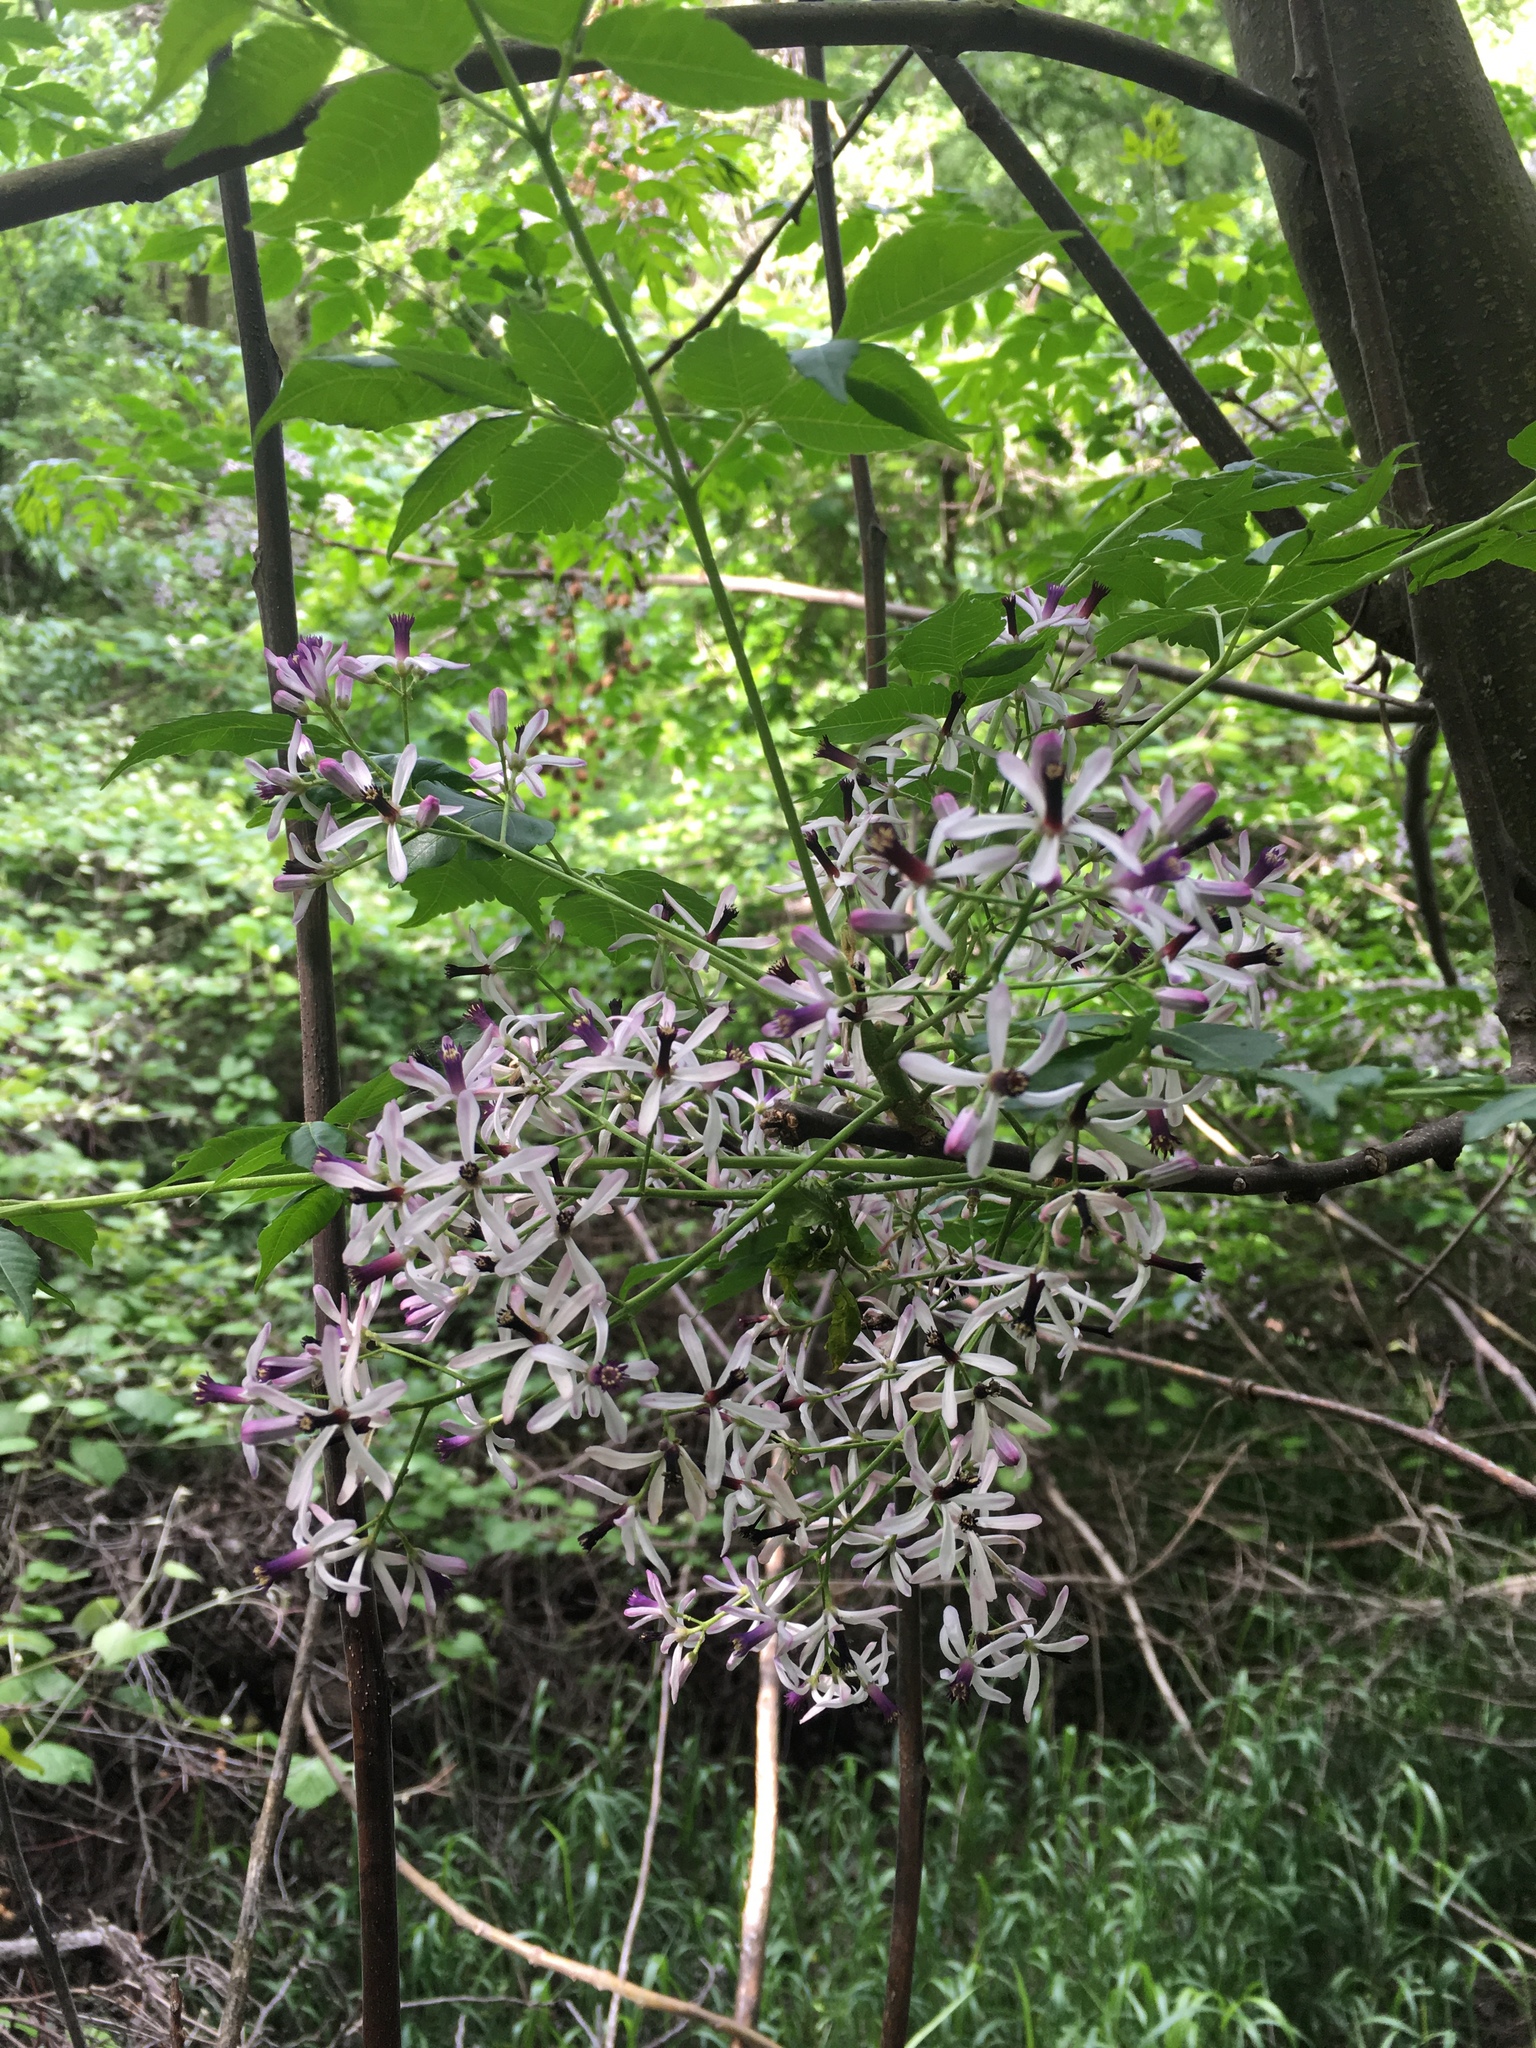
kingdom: Plantae
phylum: Tracheophyta
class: Magnoliopsida
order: Sapindales
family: Meliaceae
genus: Melia
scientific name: Melia azedarach
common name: Chinaberrytree
